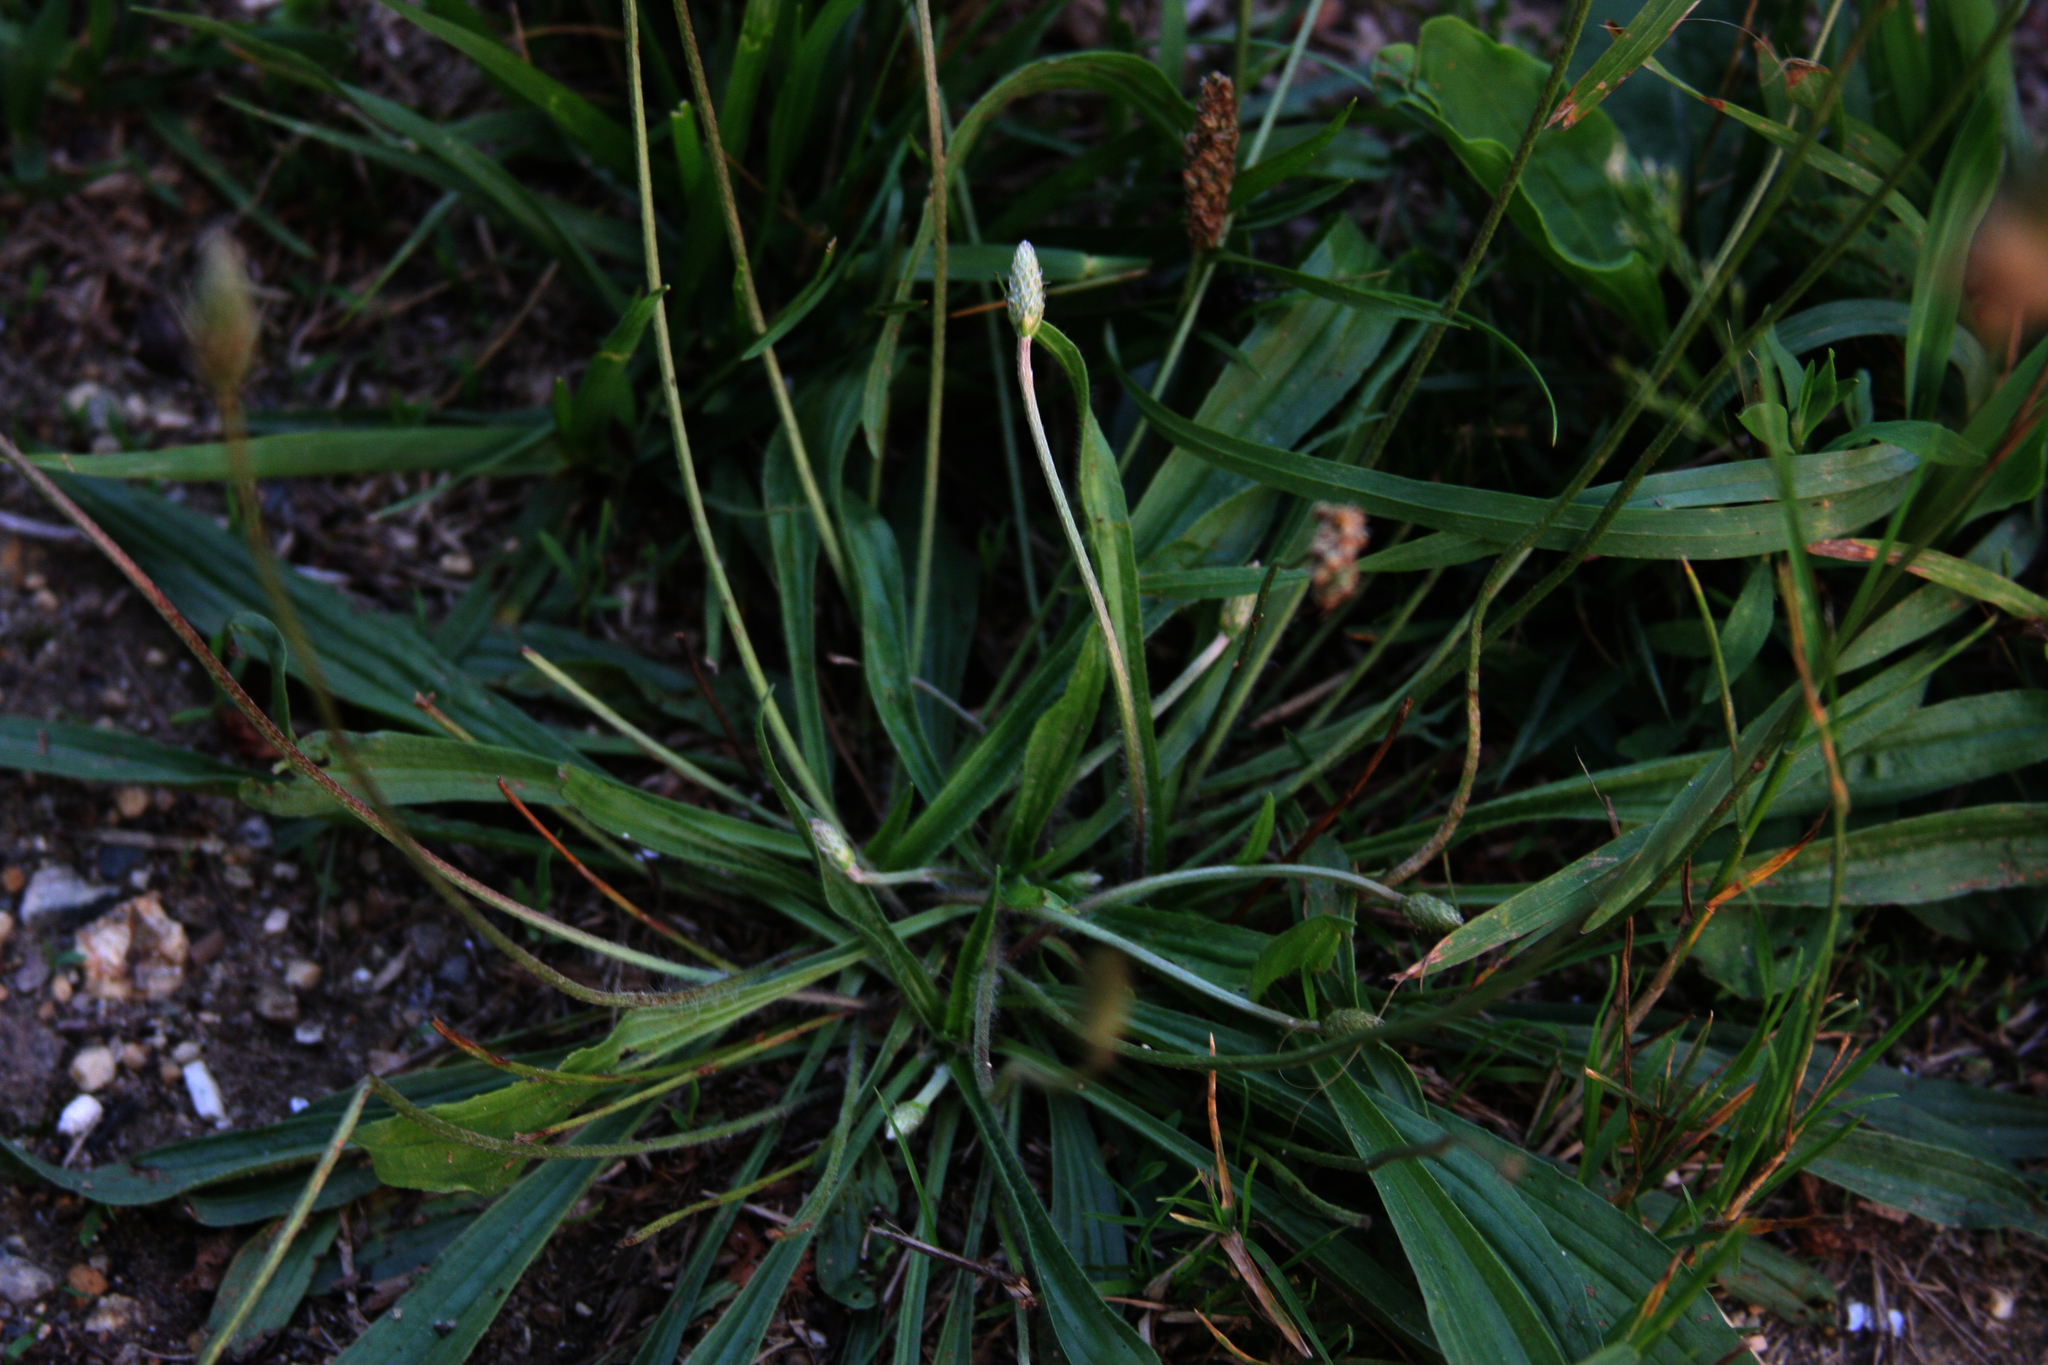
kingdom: Plantae
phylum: Tracheophyta
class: Magnoliopsida
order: Lamiales
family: Plantaginaceae
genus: Plantago
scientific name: Plantago lanceolata
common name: Ribwort plantain
